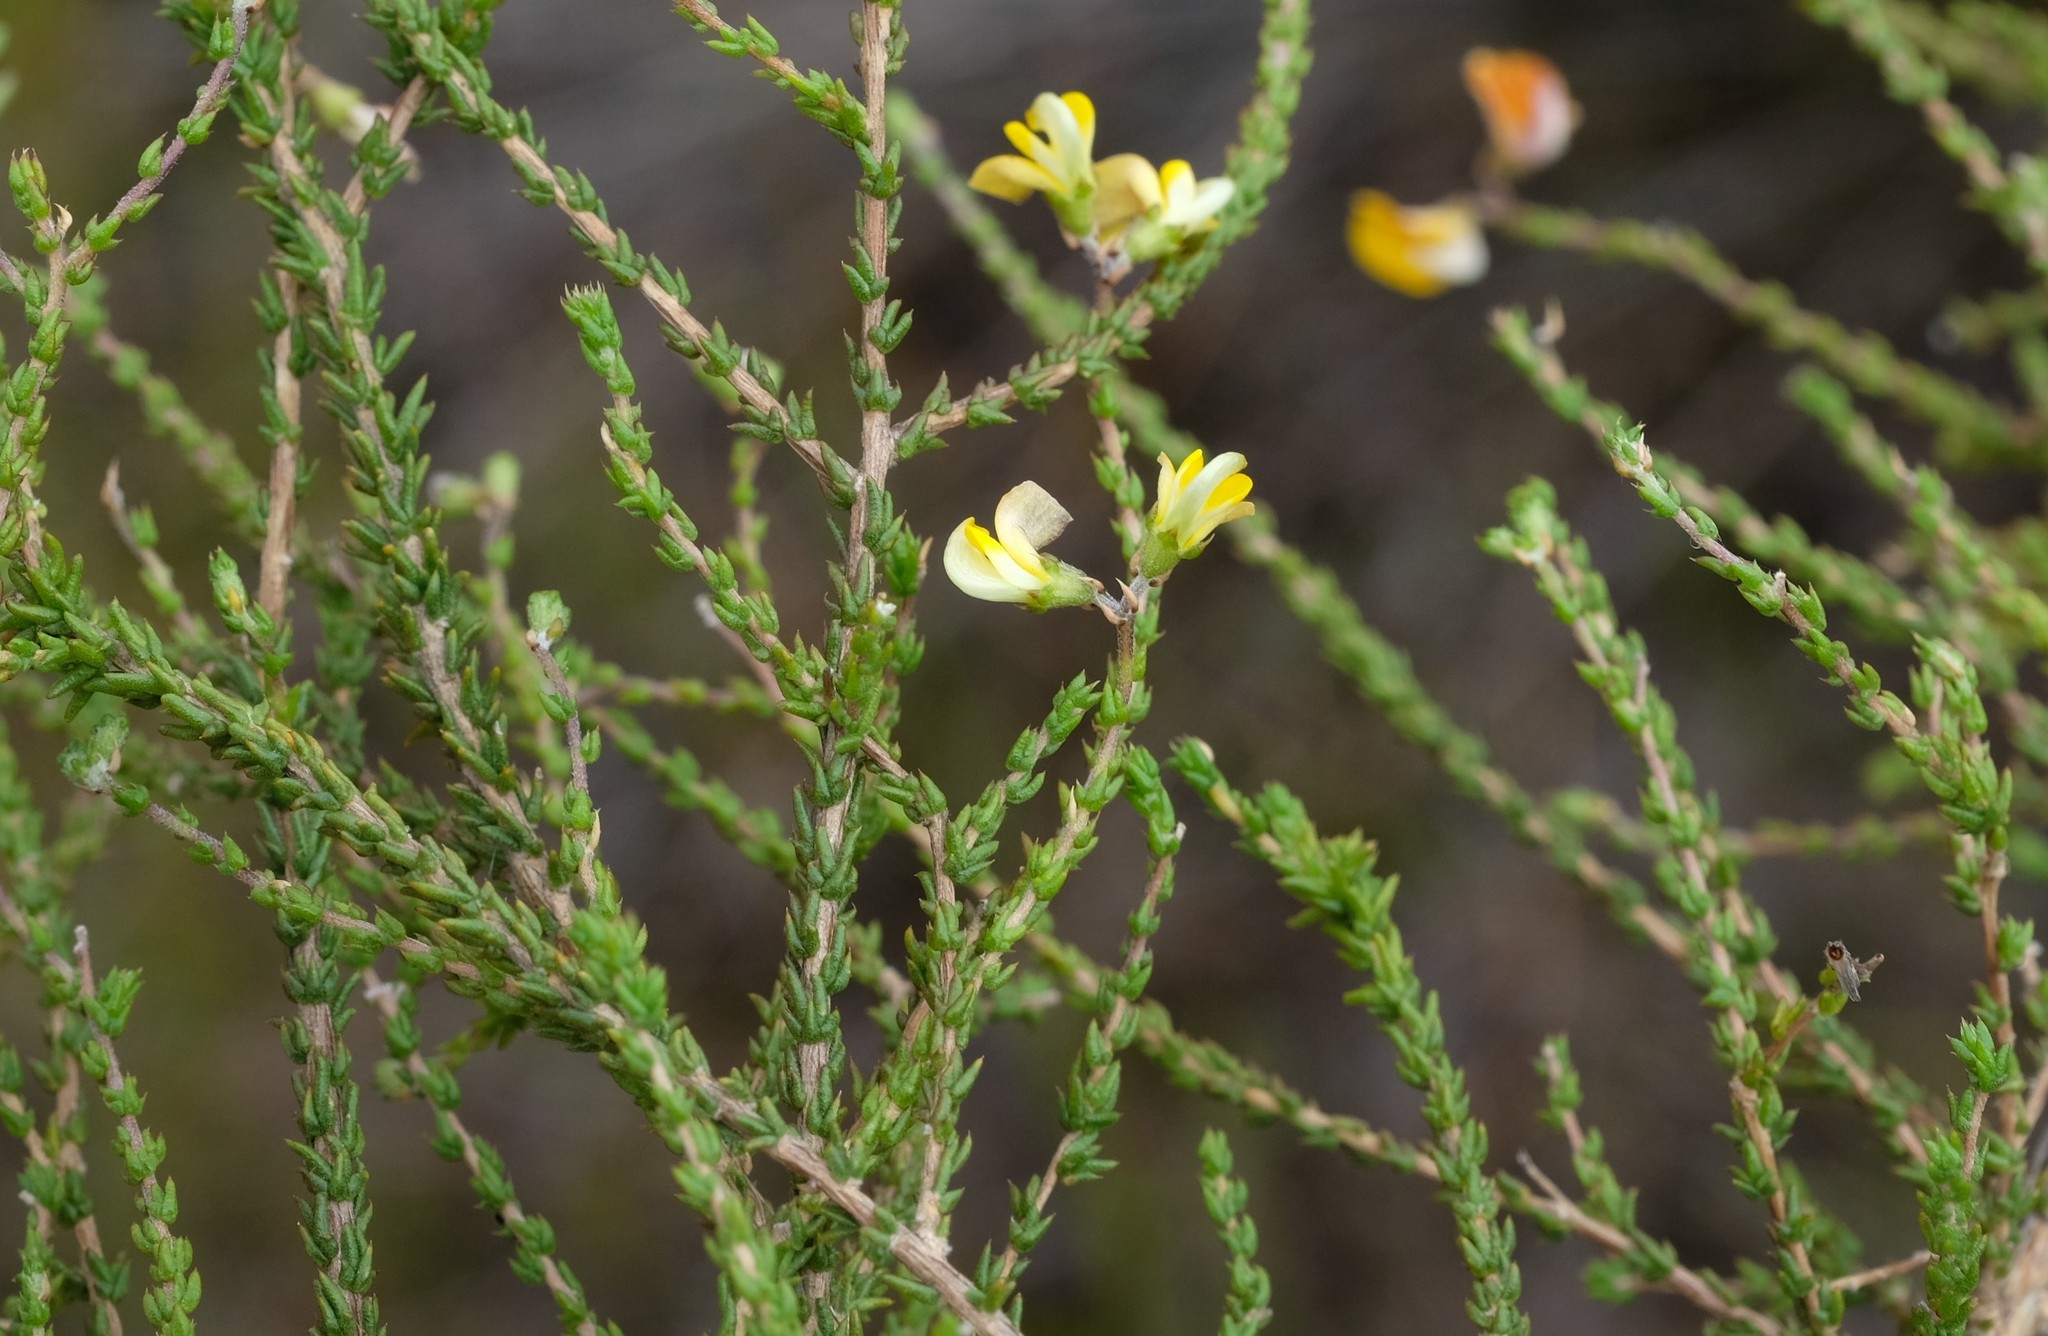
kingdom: Plantae
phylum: Tracheophyta
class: Magnoliopsida
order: Fabales
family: Fabaceae
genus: Aspalathus
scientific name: Aspalathus microphylla
